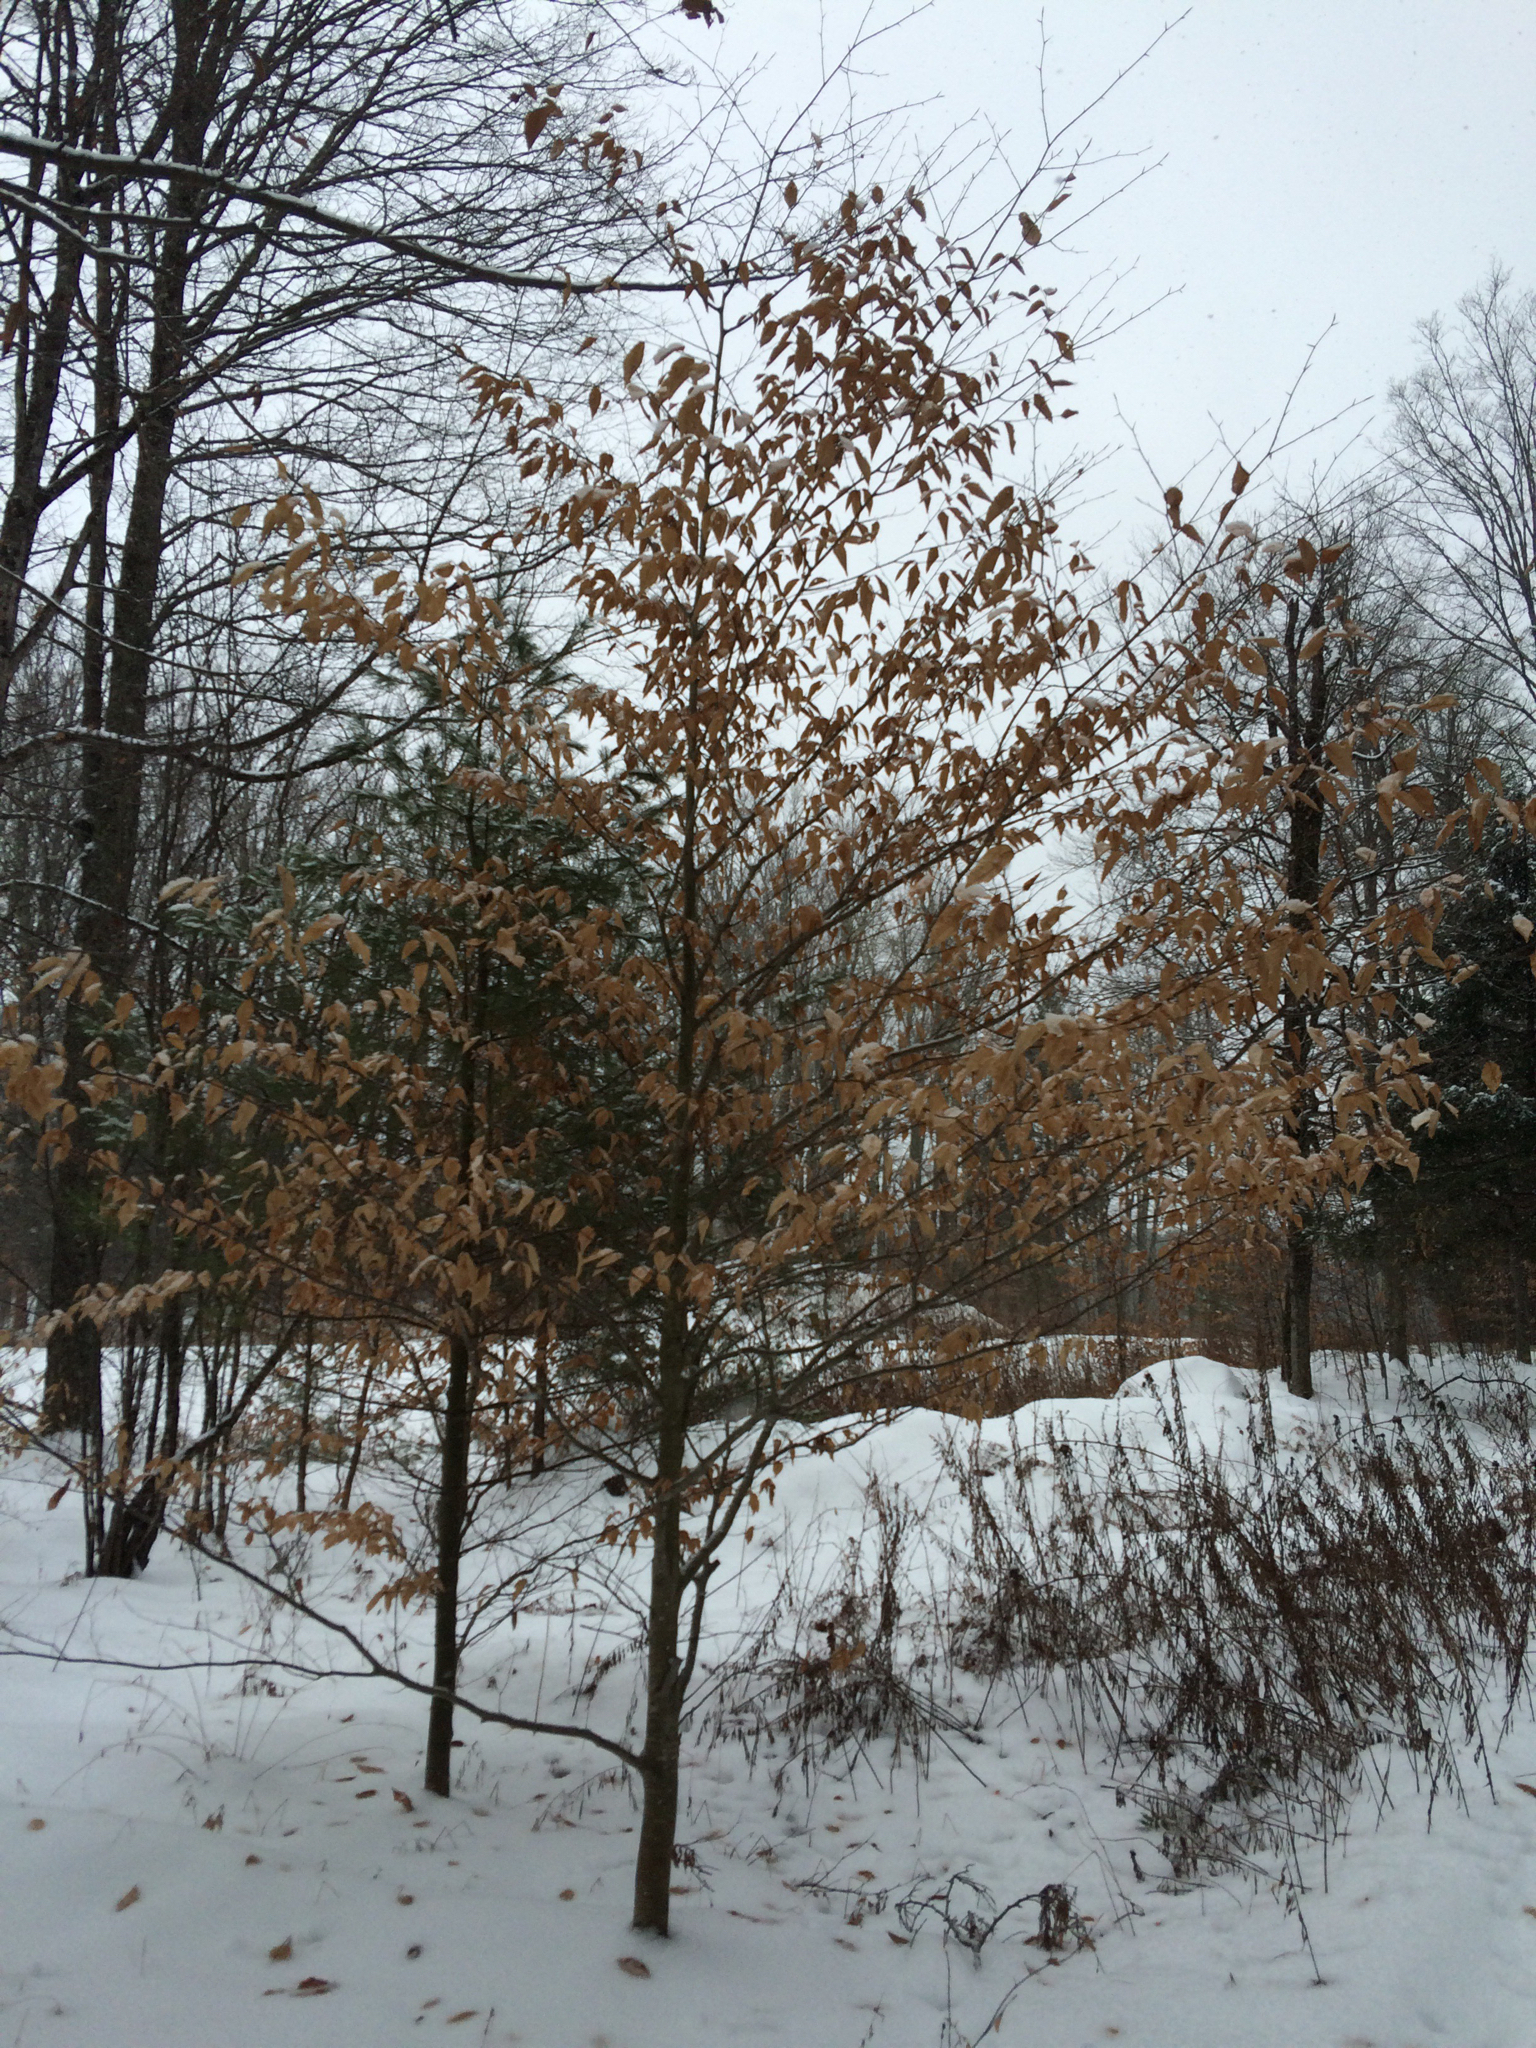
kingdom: Plantae
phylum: Tracheophyta
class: Magnoliopsida
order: Fagales
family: Fagaceae
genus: Fagus
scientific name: Fagus grandifolia
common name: American beech
